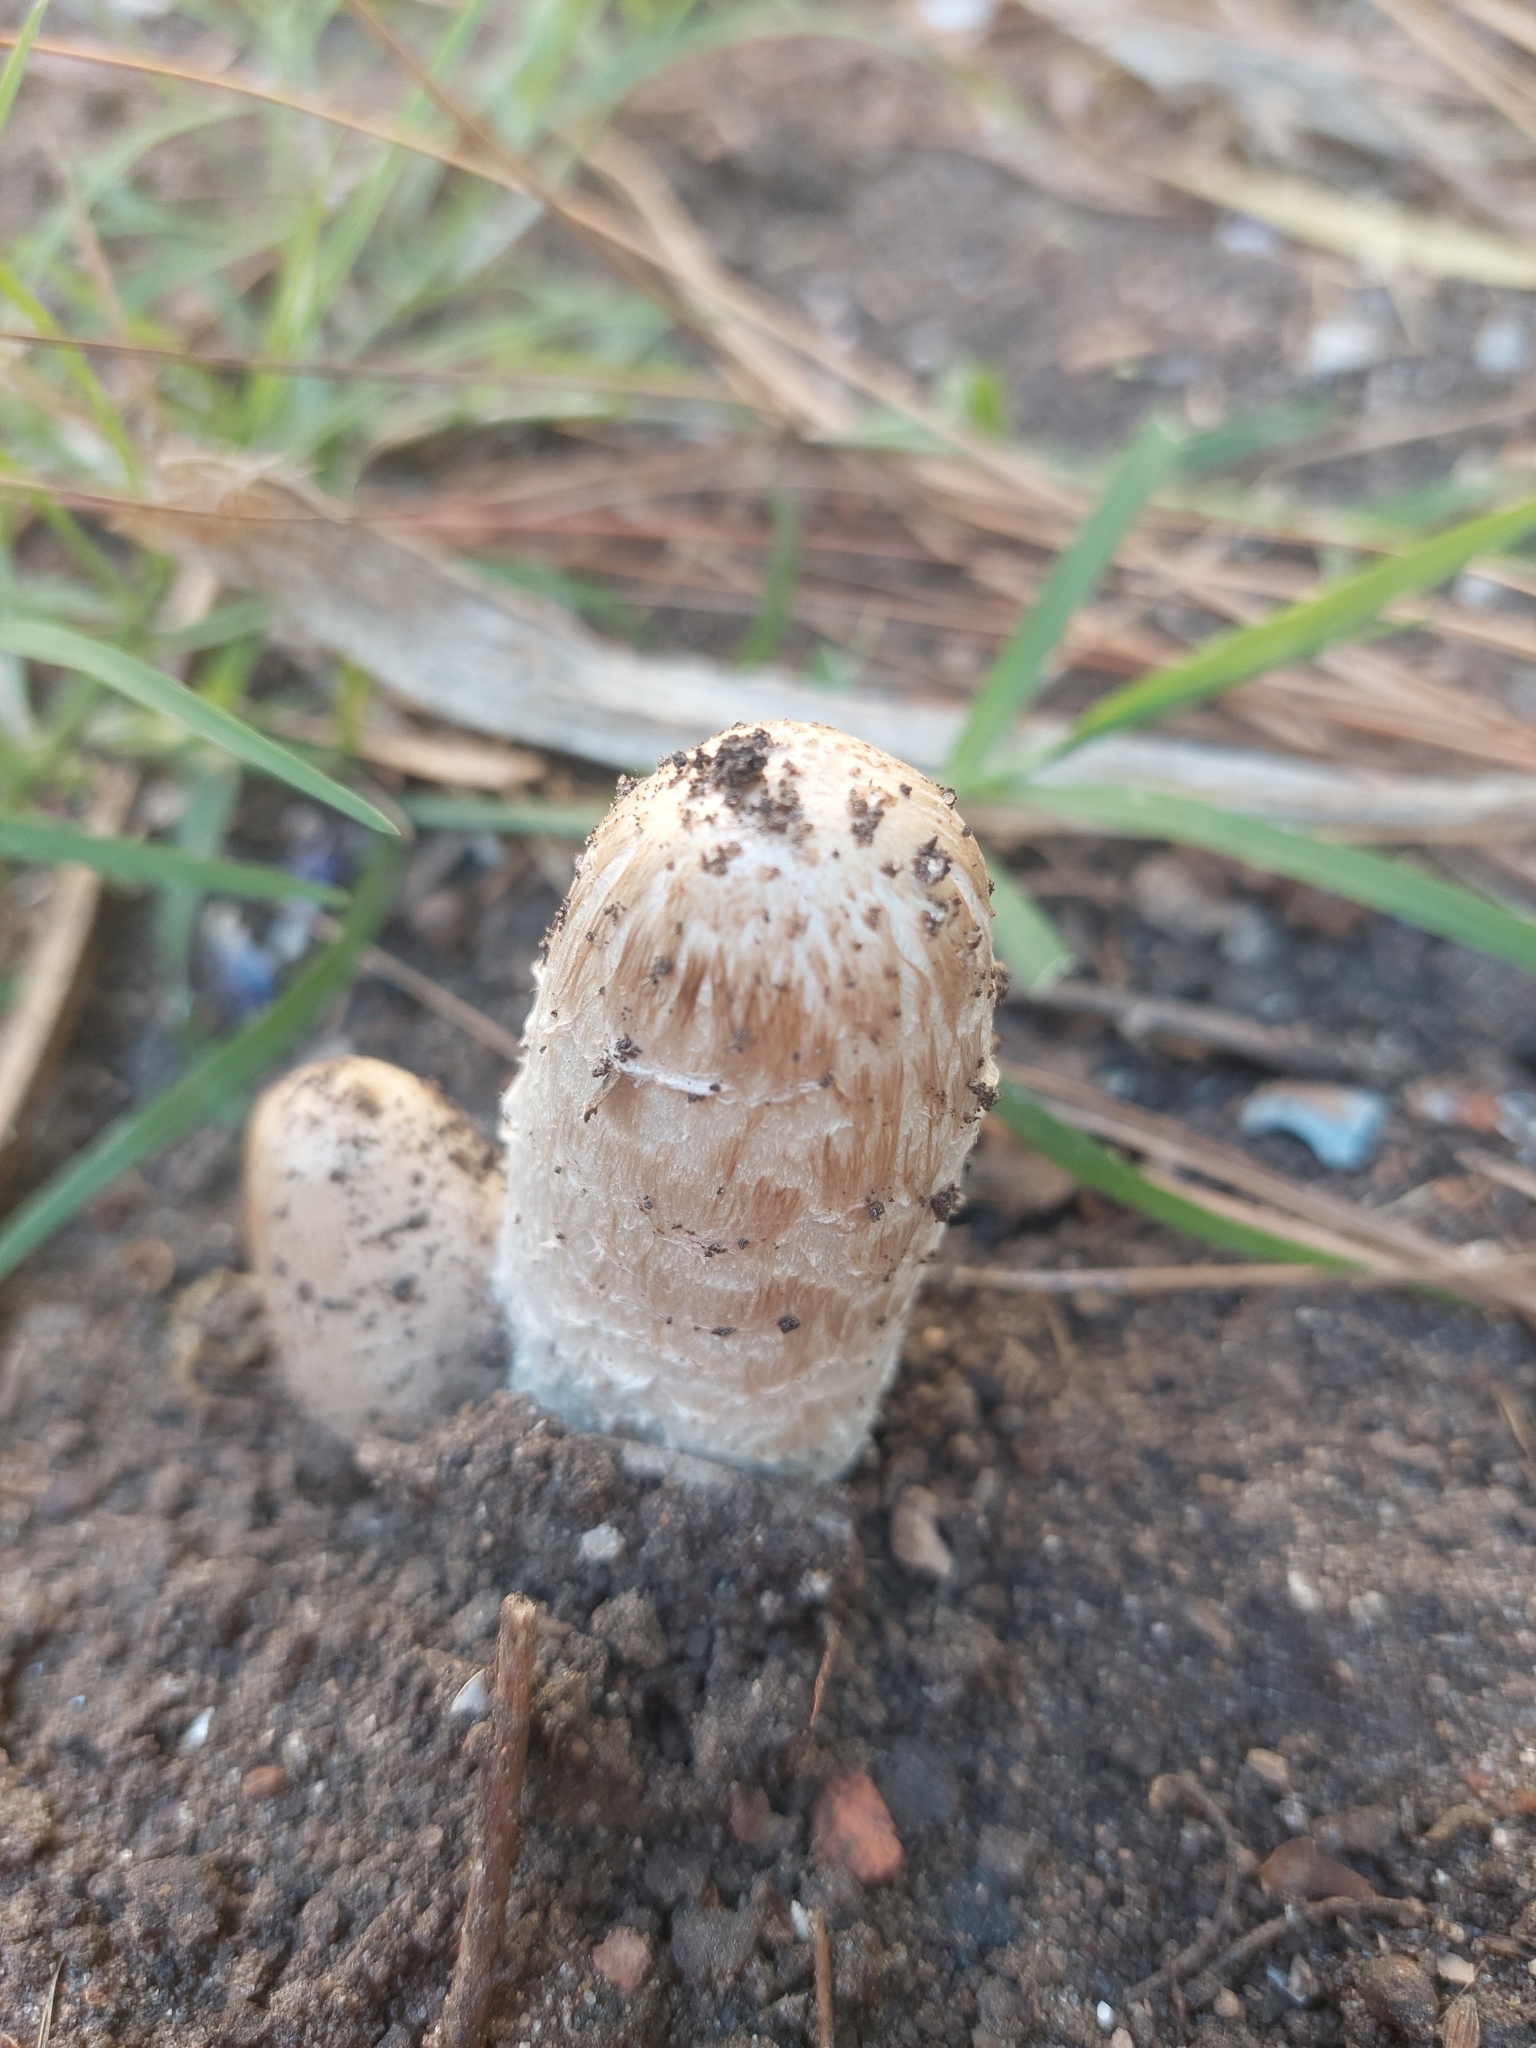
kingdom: Fungi
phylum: Basidiomycota
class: Agaricomycetes
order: Agaricales
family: Agaricaceae
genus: Coprinus
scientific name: Coprinus comatus
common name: Lawyer's wig
